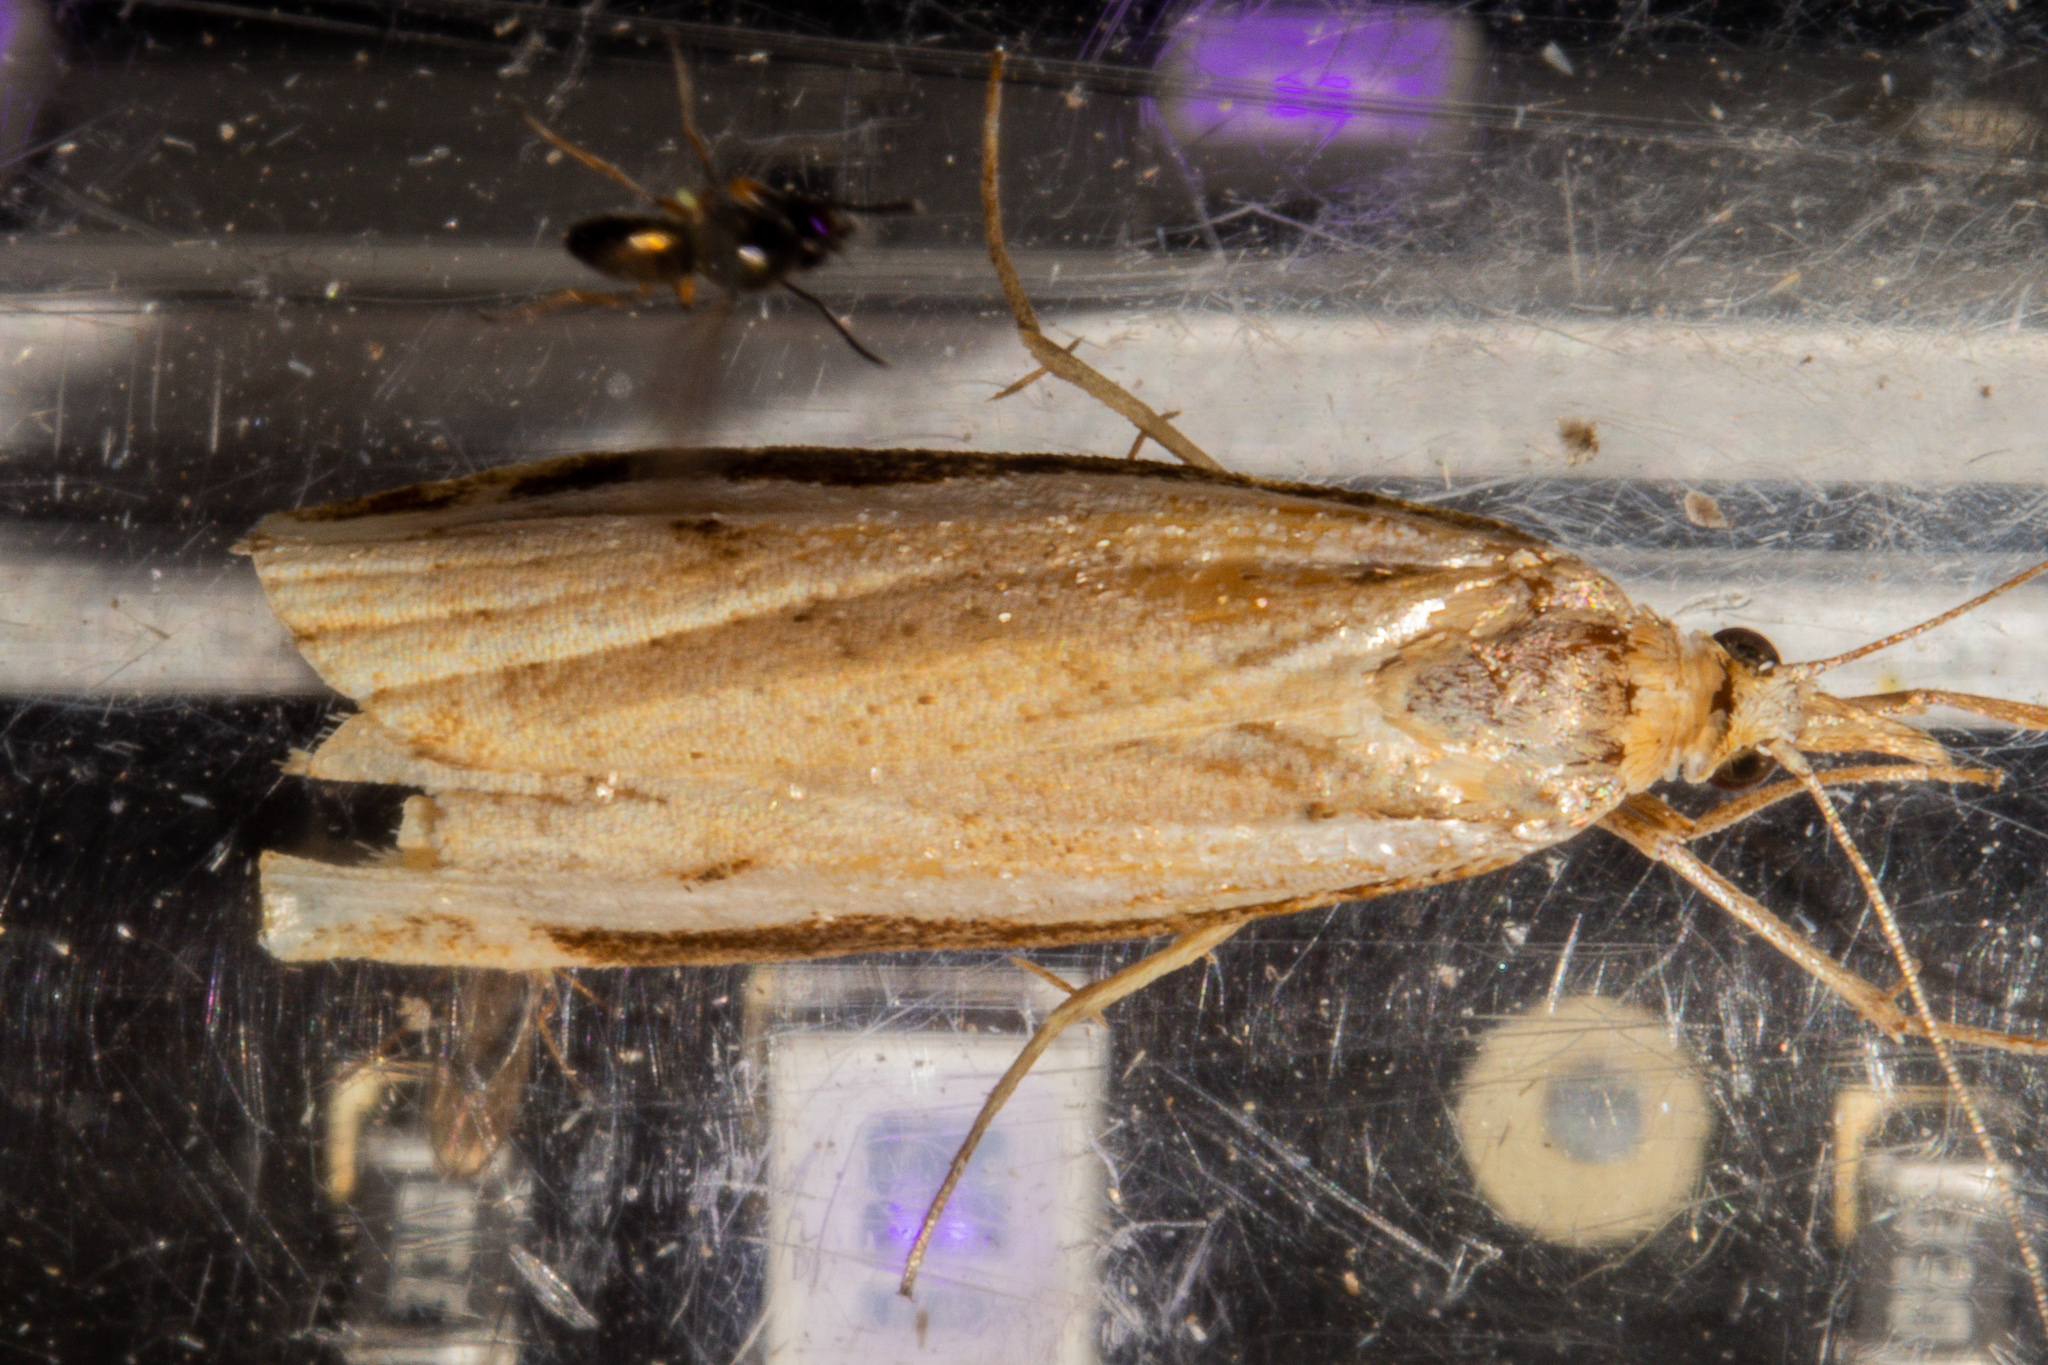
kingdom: Animalia
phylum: Arthropoda
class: Insecta
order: Lepidoptera
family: Crambidae
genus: Orocrambus
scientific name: Orocrambus flexuosellus
